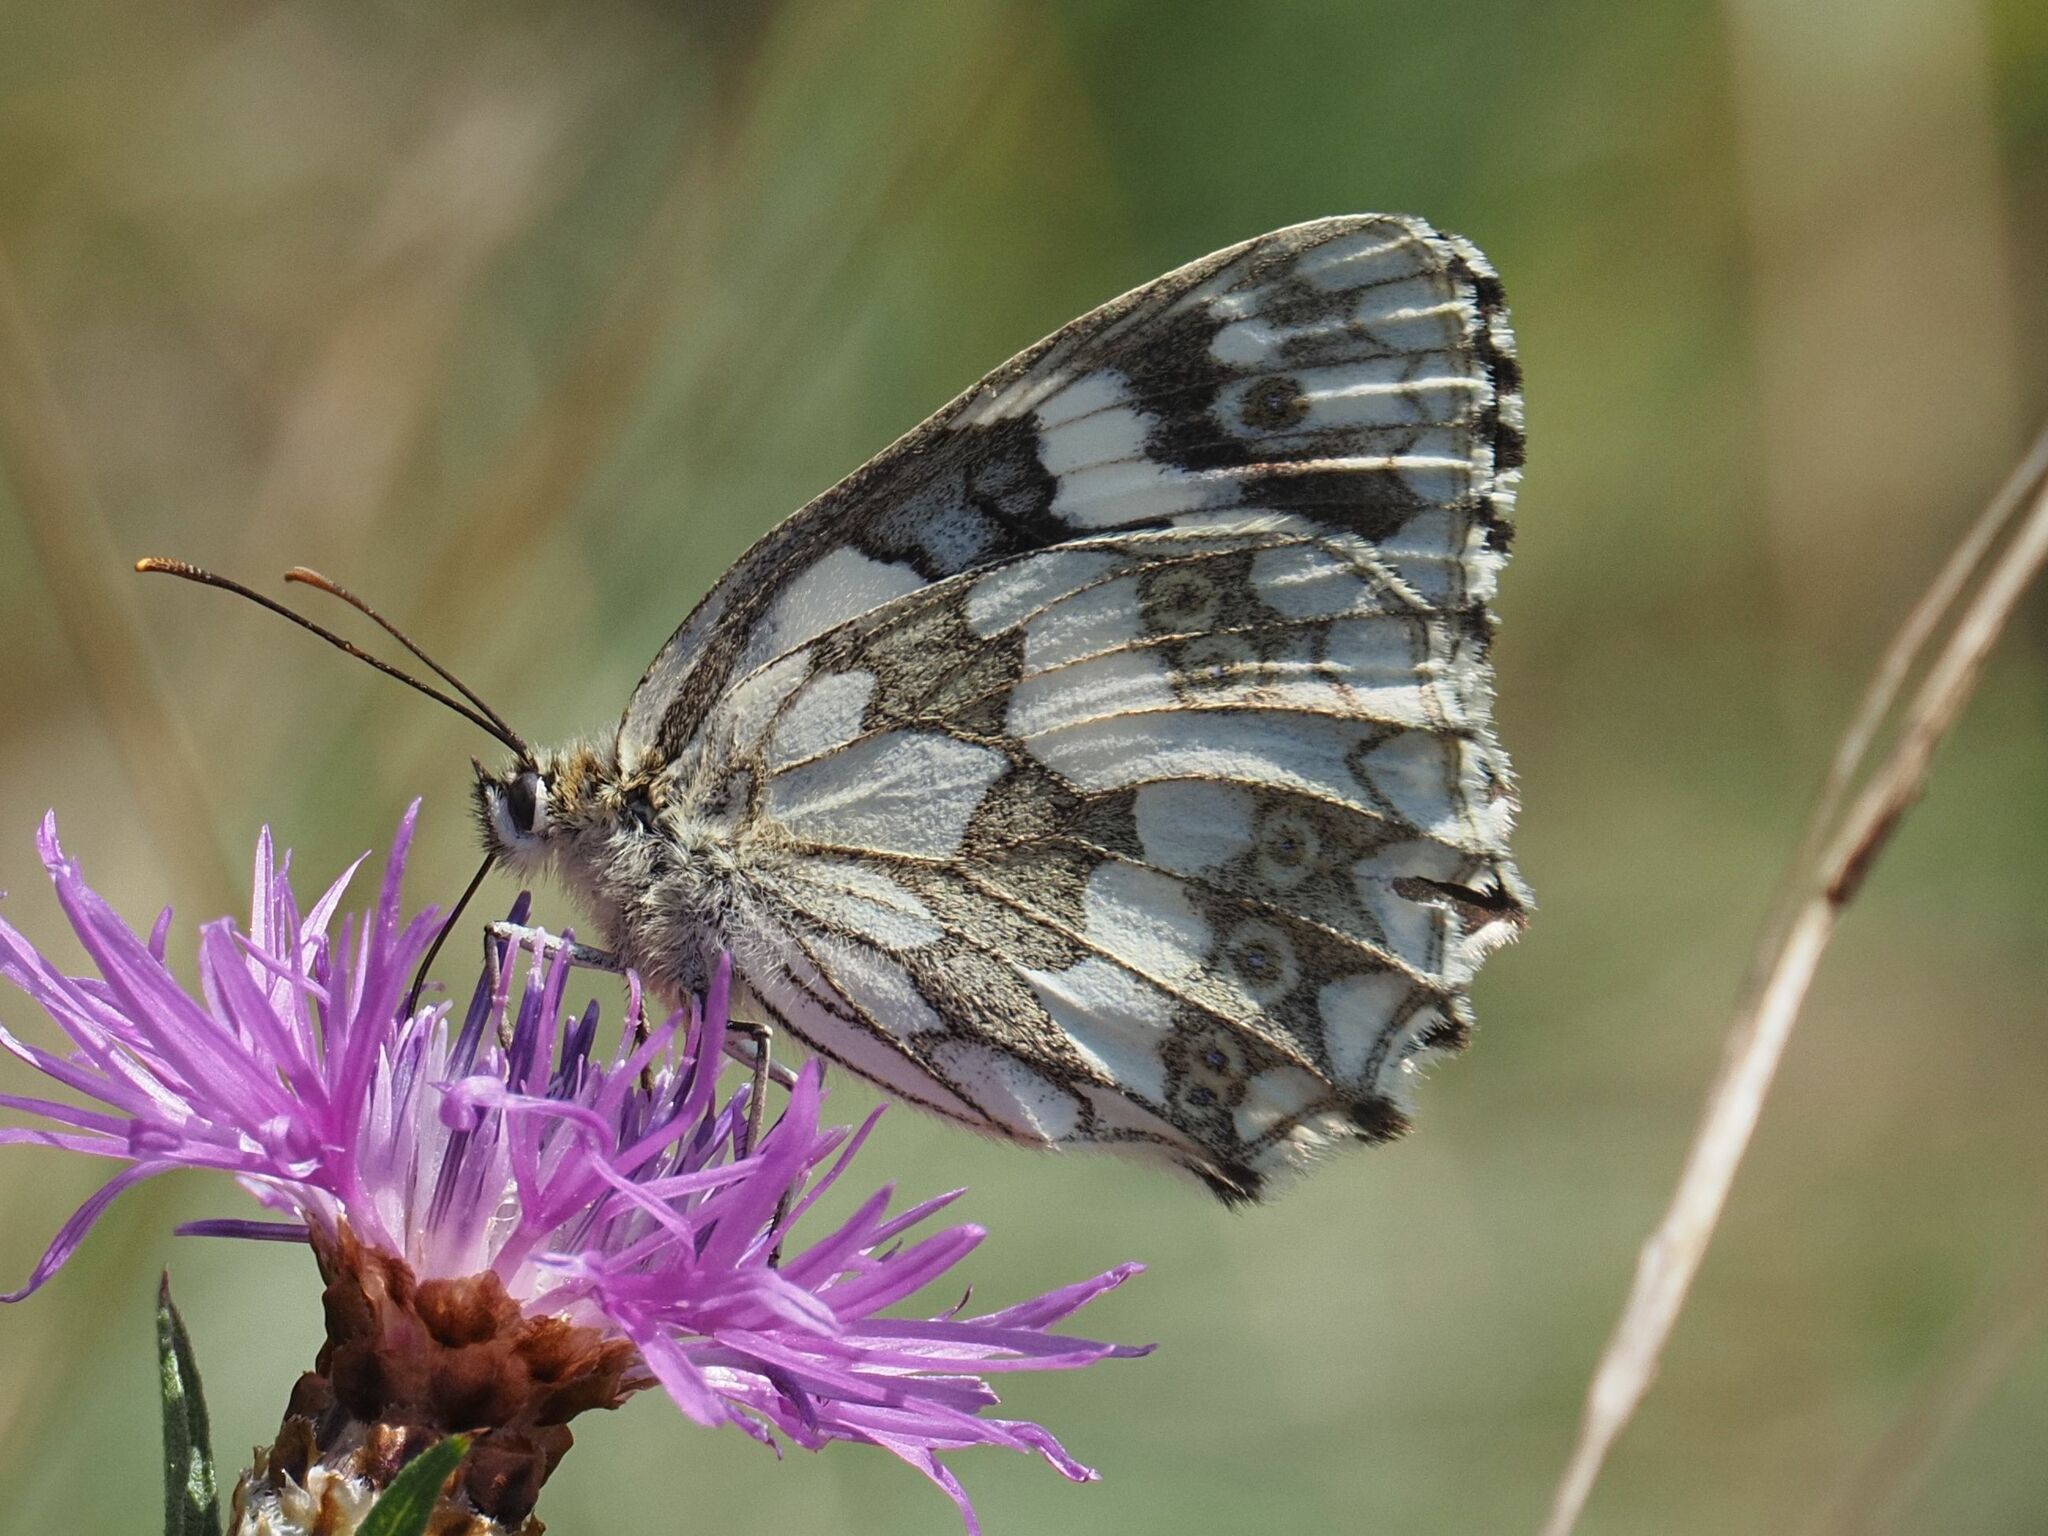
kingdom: Animalia
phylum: Arthropoda
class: Insecta
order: Lepidoptera
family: Nymphalidae
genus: Melanargia
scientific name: Melanargia galathea
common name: Marbled white
